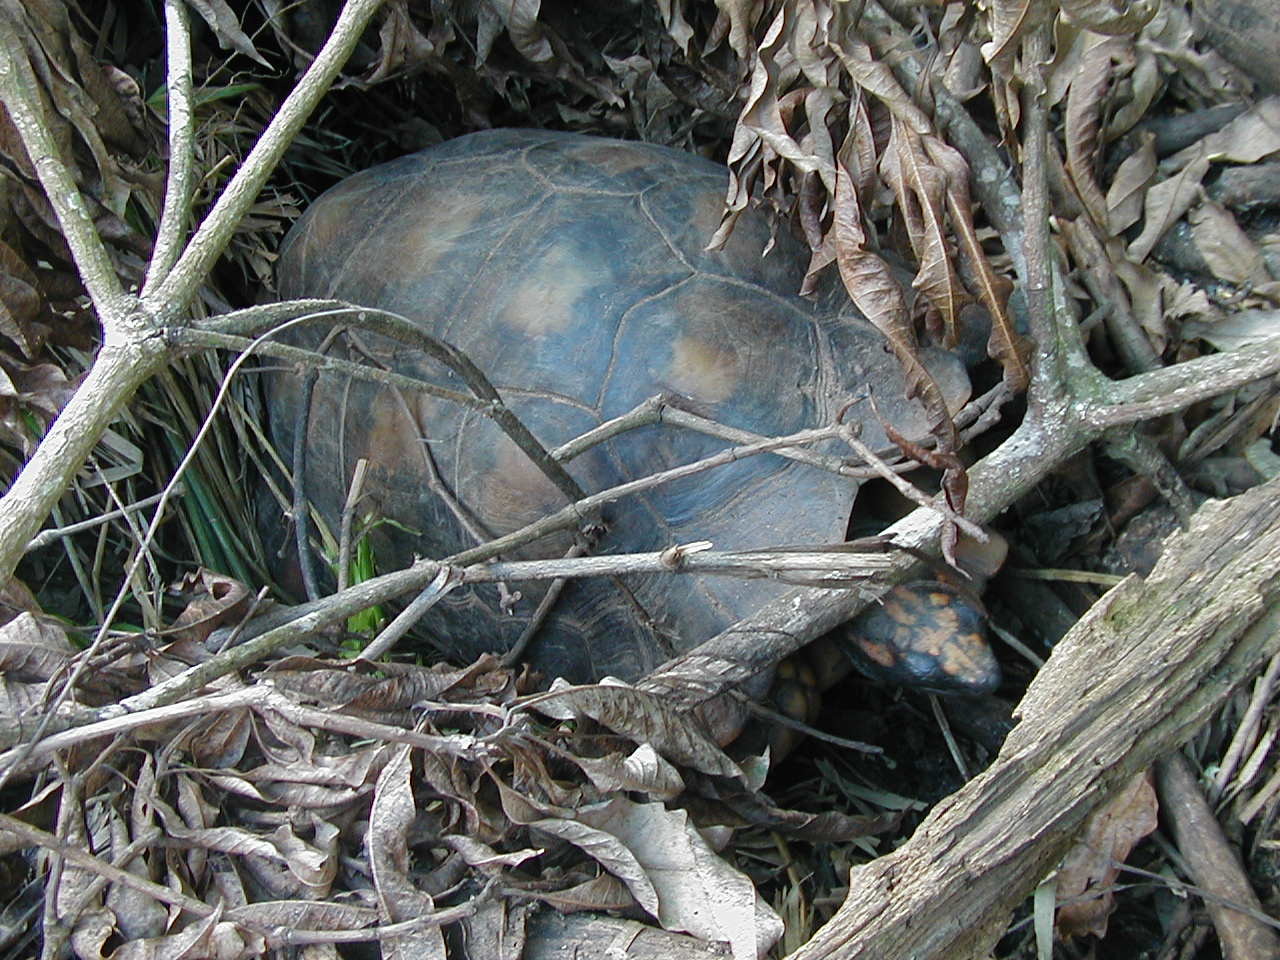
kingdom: Animalia
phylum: Chordata
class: Testudines
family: Testudinidae
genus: Chelonoidis
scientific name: Chelonoidis denticulatus
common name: Yellow-footed tortoise
